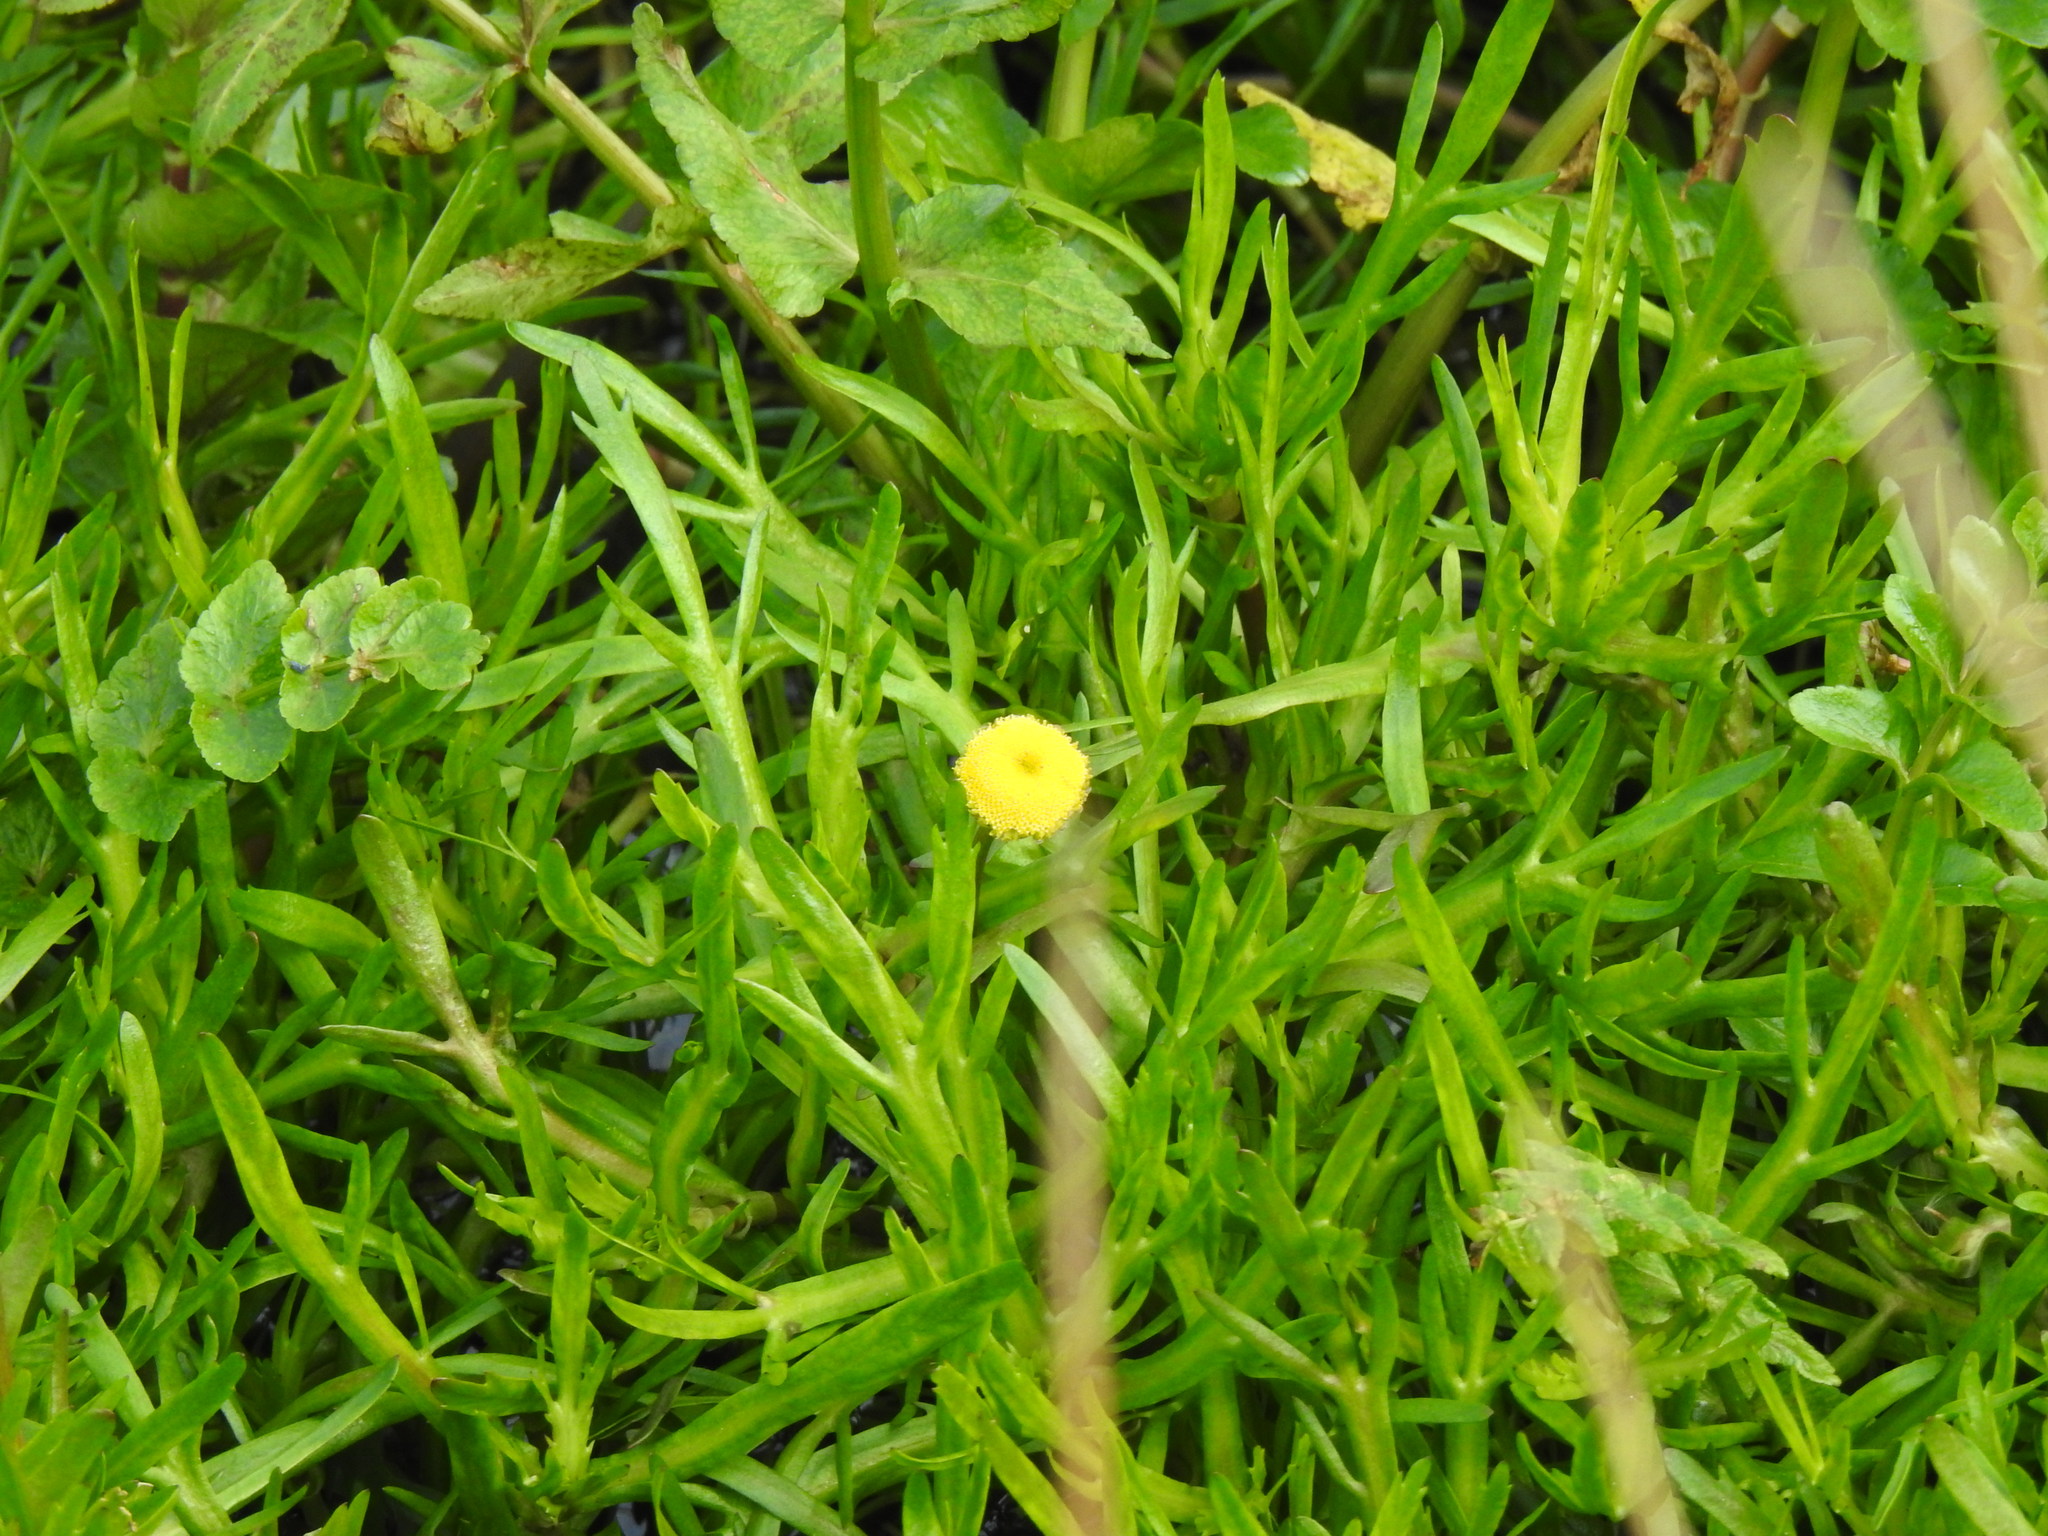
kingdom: Plantae
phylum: Tracheophyta
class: Magnoliopsida
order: Asterales
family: Asteraceae
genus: Cotula
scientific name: Cotula coronopifolia
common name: Buttonweed
